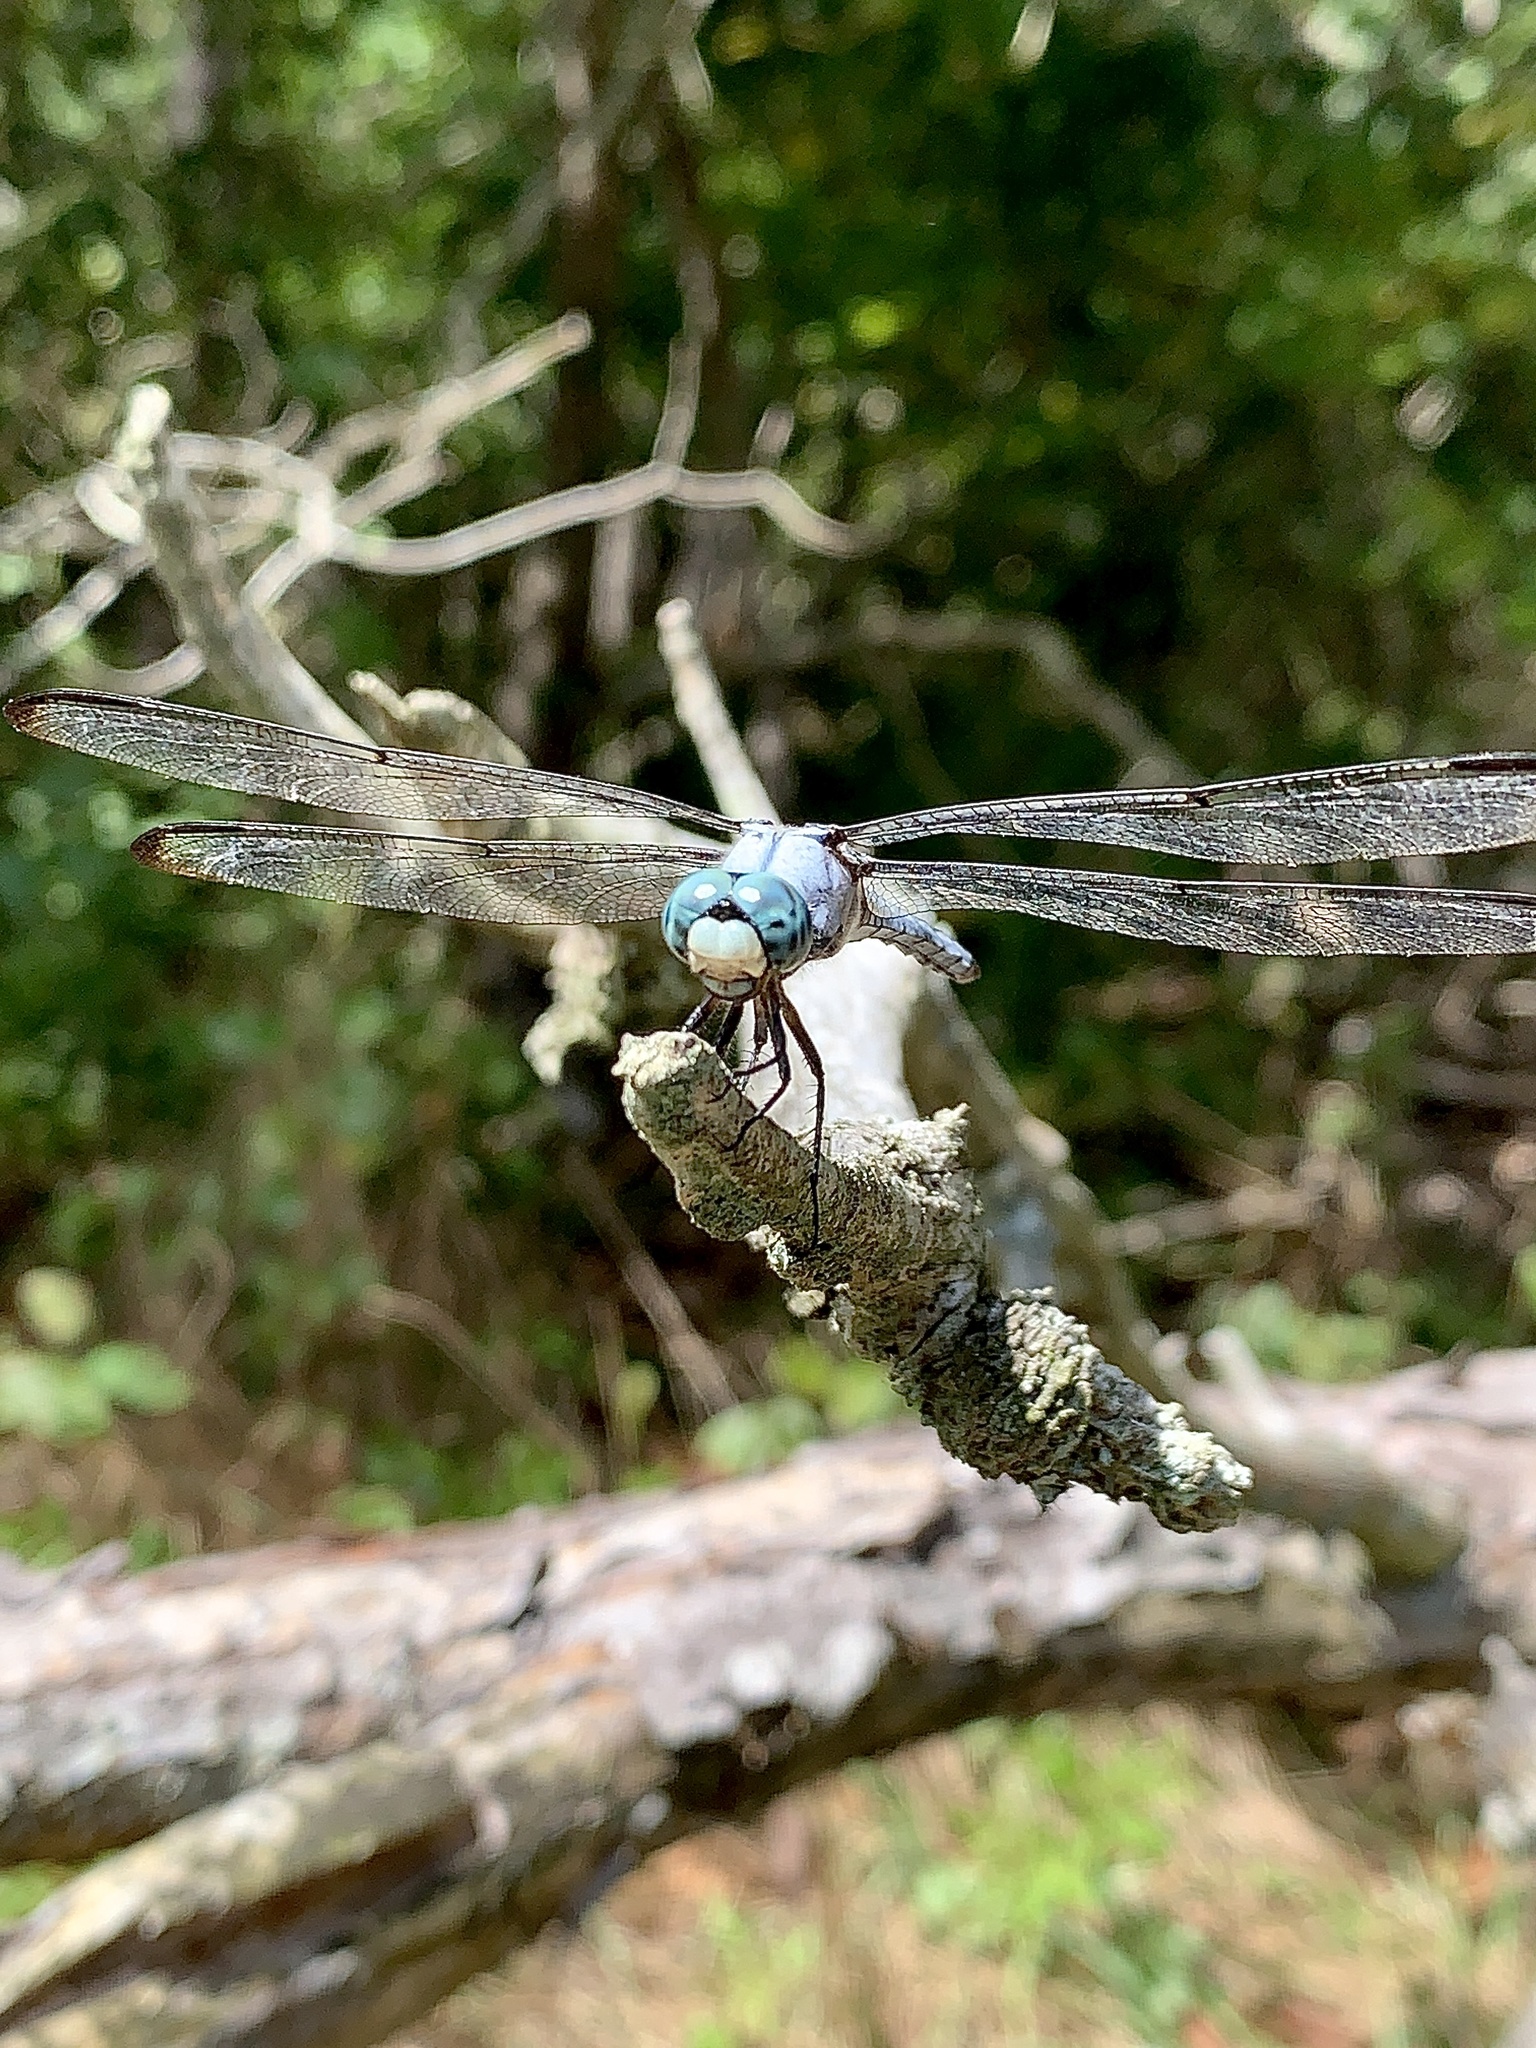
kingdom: Animalia
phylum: Arthropoda
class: Insecta
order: Odonata
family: Libellulidae
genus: Libellula
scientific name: Libellula vibrans
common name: Great blue skimmer
